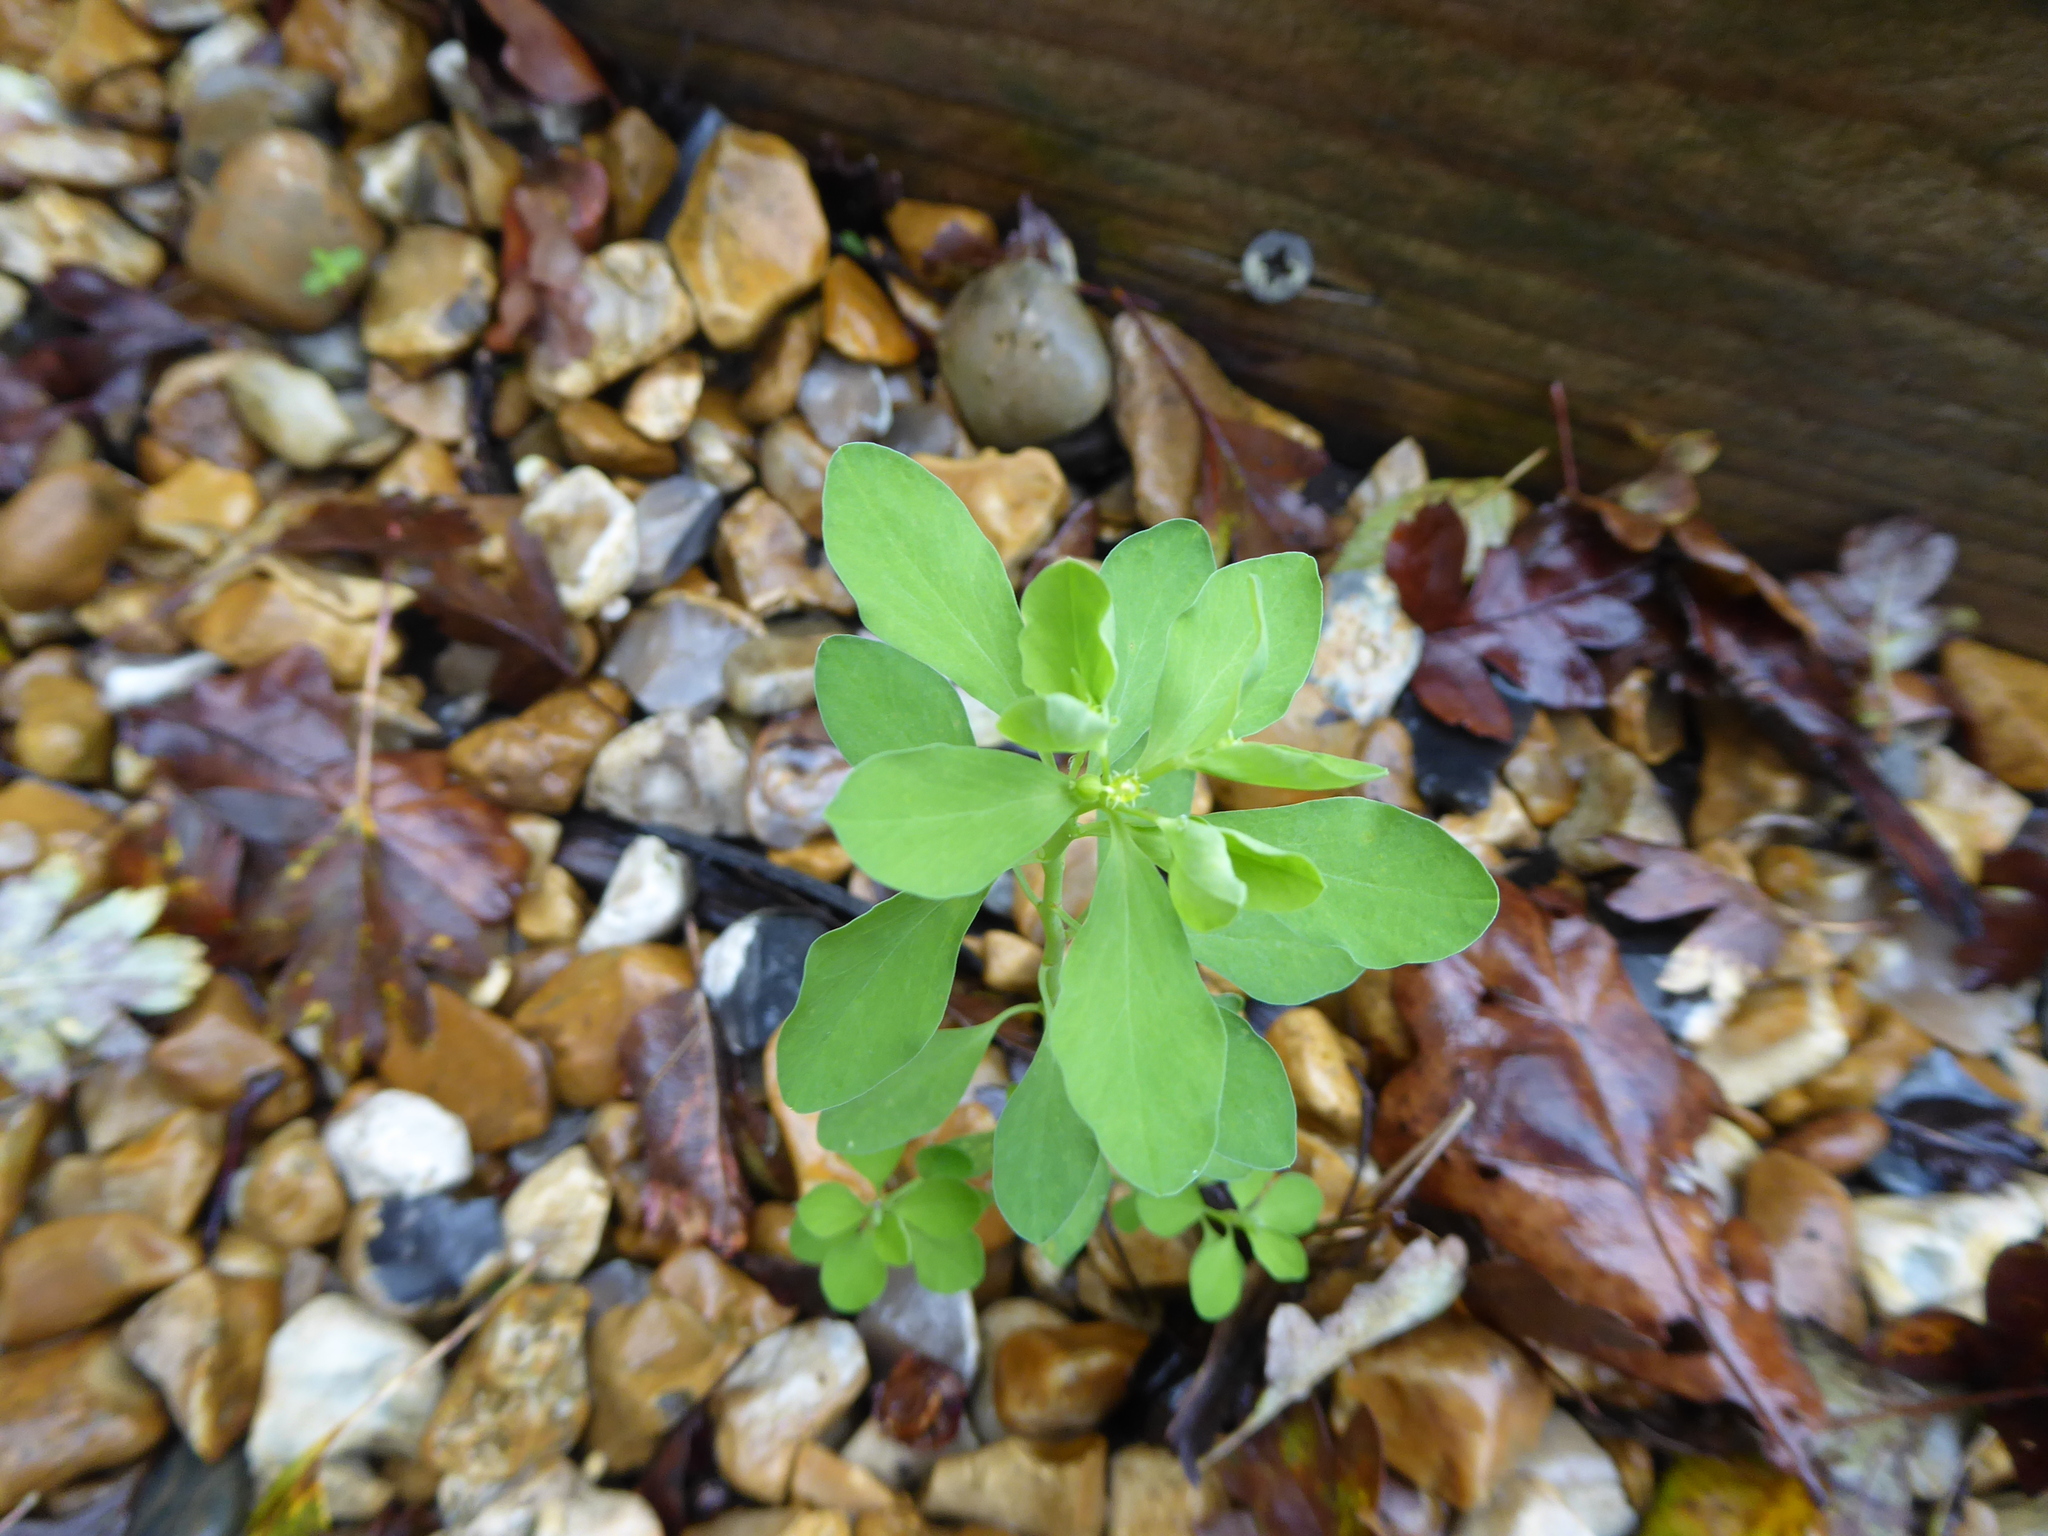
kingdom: Plantae
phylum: Tracheophyta
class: Magnoliopsida
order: Malpighiales
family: Euphorbiaceae
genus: Euphorbia
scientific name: Euphorbia peplus
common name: Petty spurge
